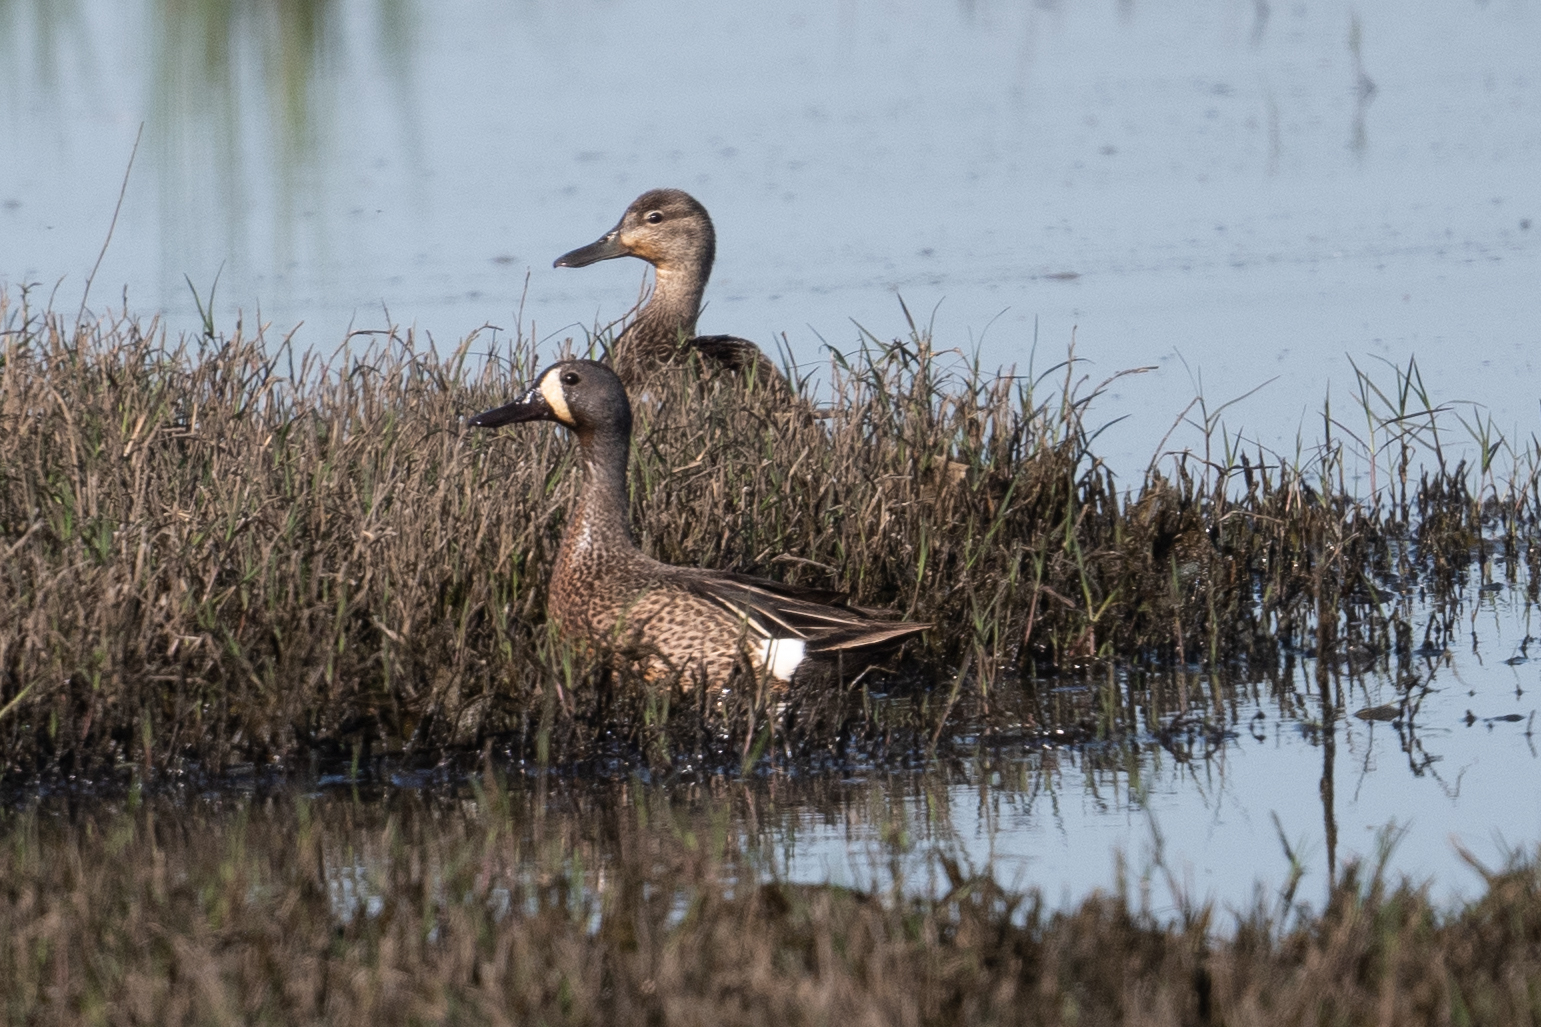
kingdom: Animalia
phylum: Chordata
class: Aves
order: Anseriformes
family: Anatidae
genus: Spatula
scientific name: Spatula discors
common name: Blue-winged teal
